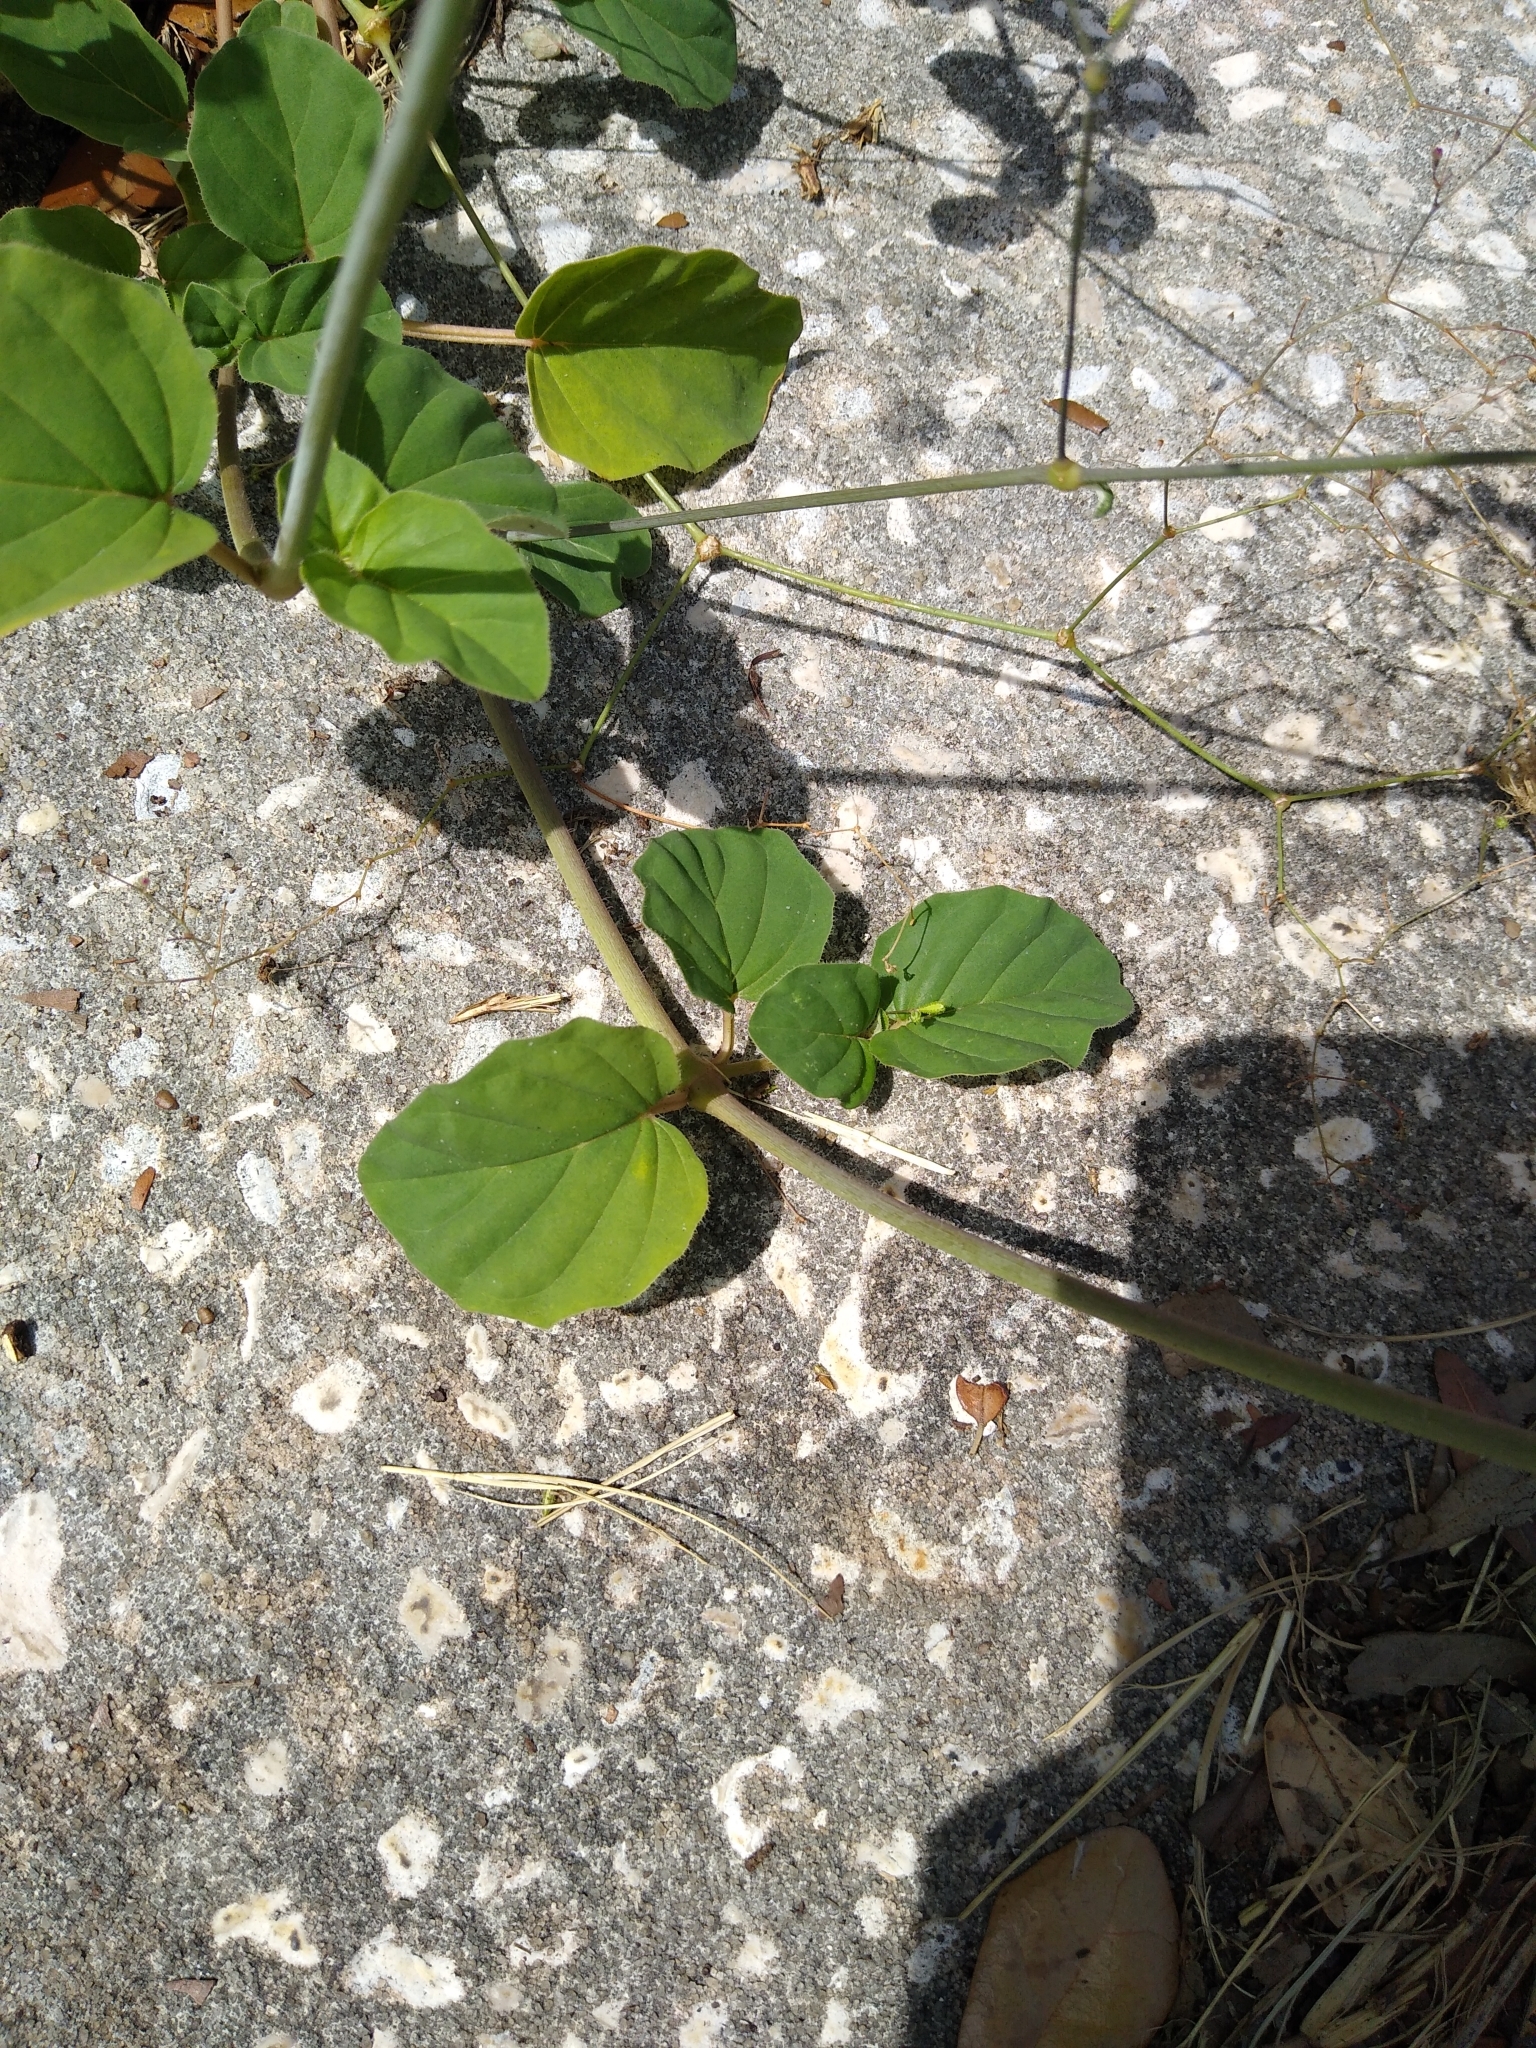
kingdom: Plantae
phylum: Tracheophyta
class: Magnoliopsida
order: Caryophyllales
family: Nyctaginaceae
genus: Boerhavia
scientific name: Boerhavia diffusa
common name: Red spiderling
